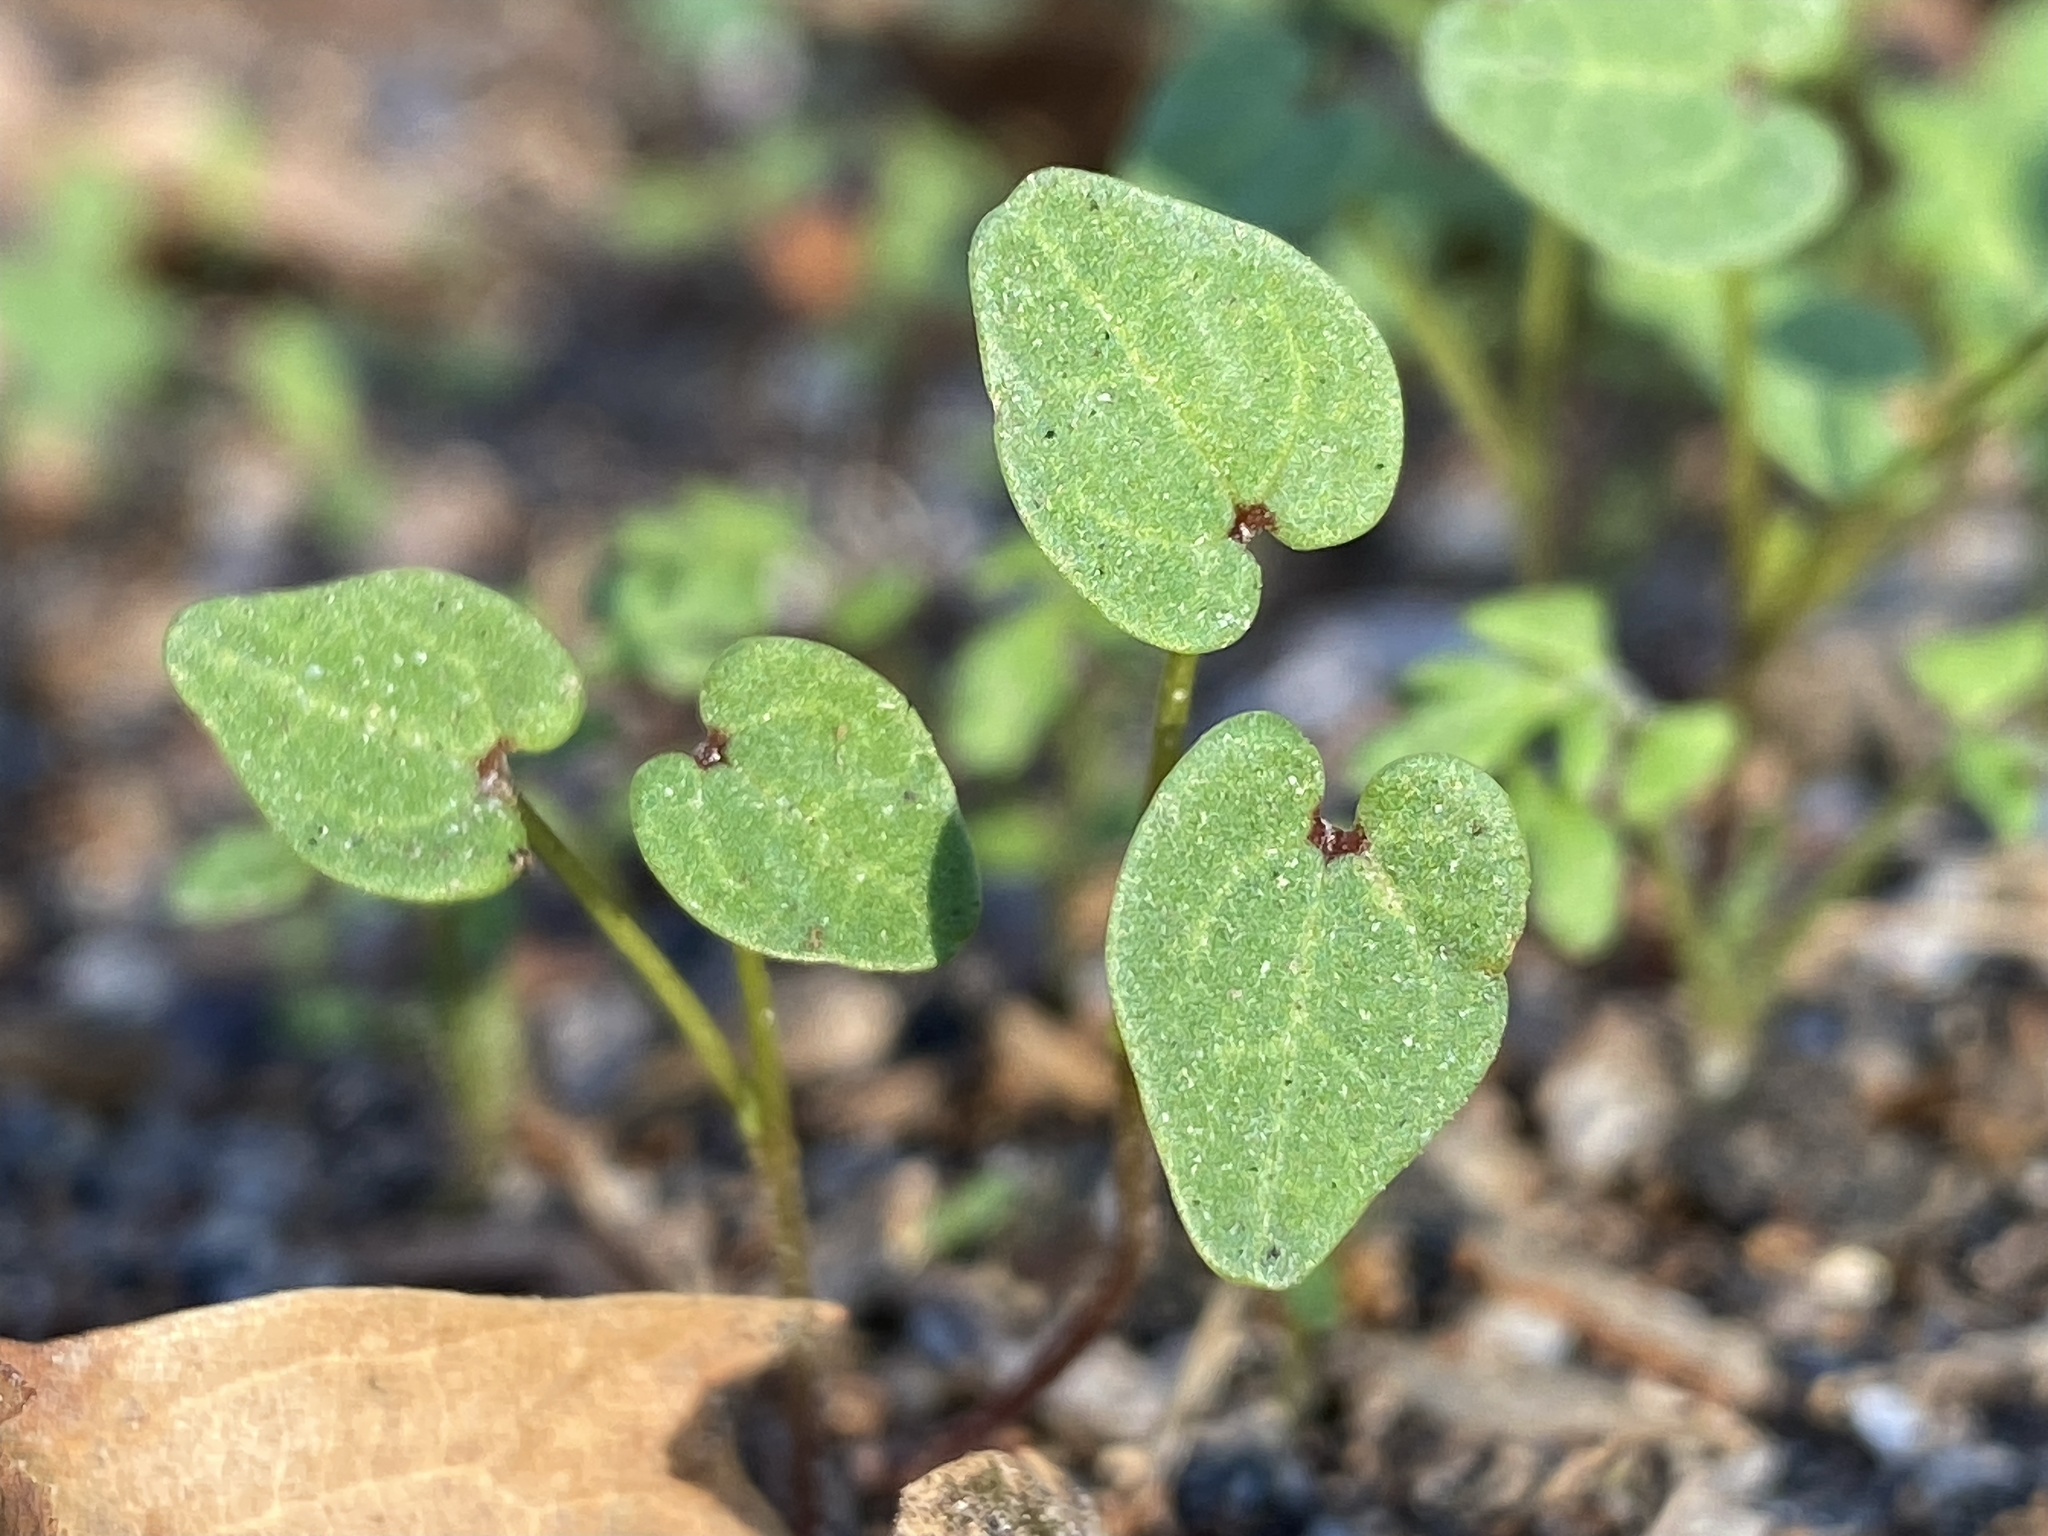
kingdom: Plantae
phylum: Tracheophyta
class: Magnoliopsida
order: Malvales
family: Malvaceae
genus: Malva
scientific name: Malva parviflora
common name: Least mallow
